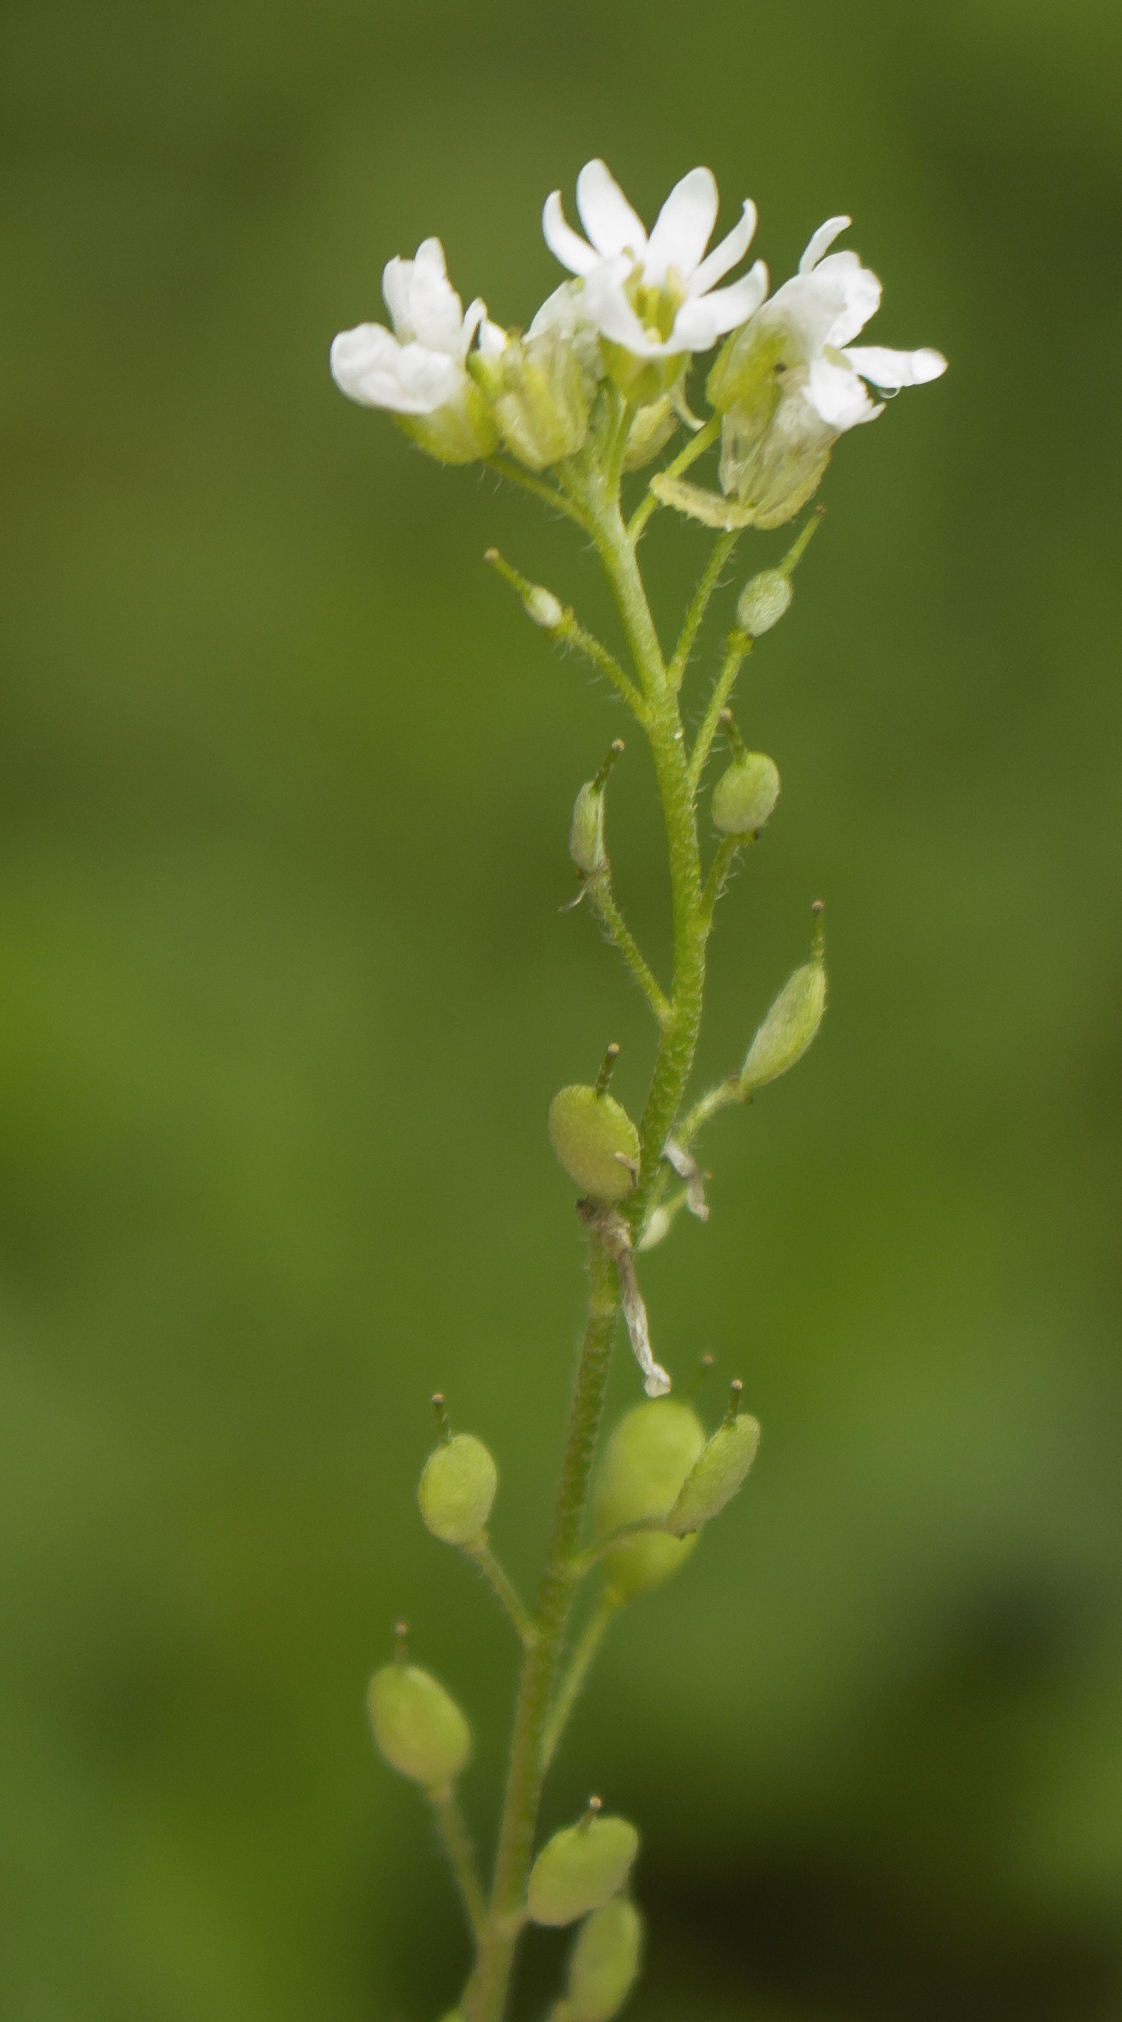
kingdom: Plantae
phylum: Tracheophyta
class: Magnoliopsida
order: Brassicales
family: Brassicaceae
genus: Berteroa
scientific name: Berteroa incana
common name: Hoary alison
